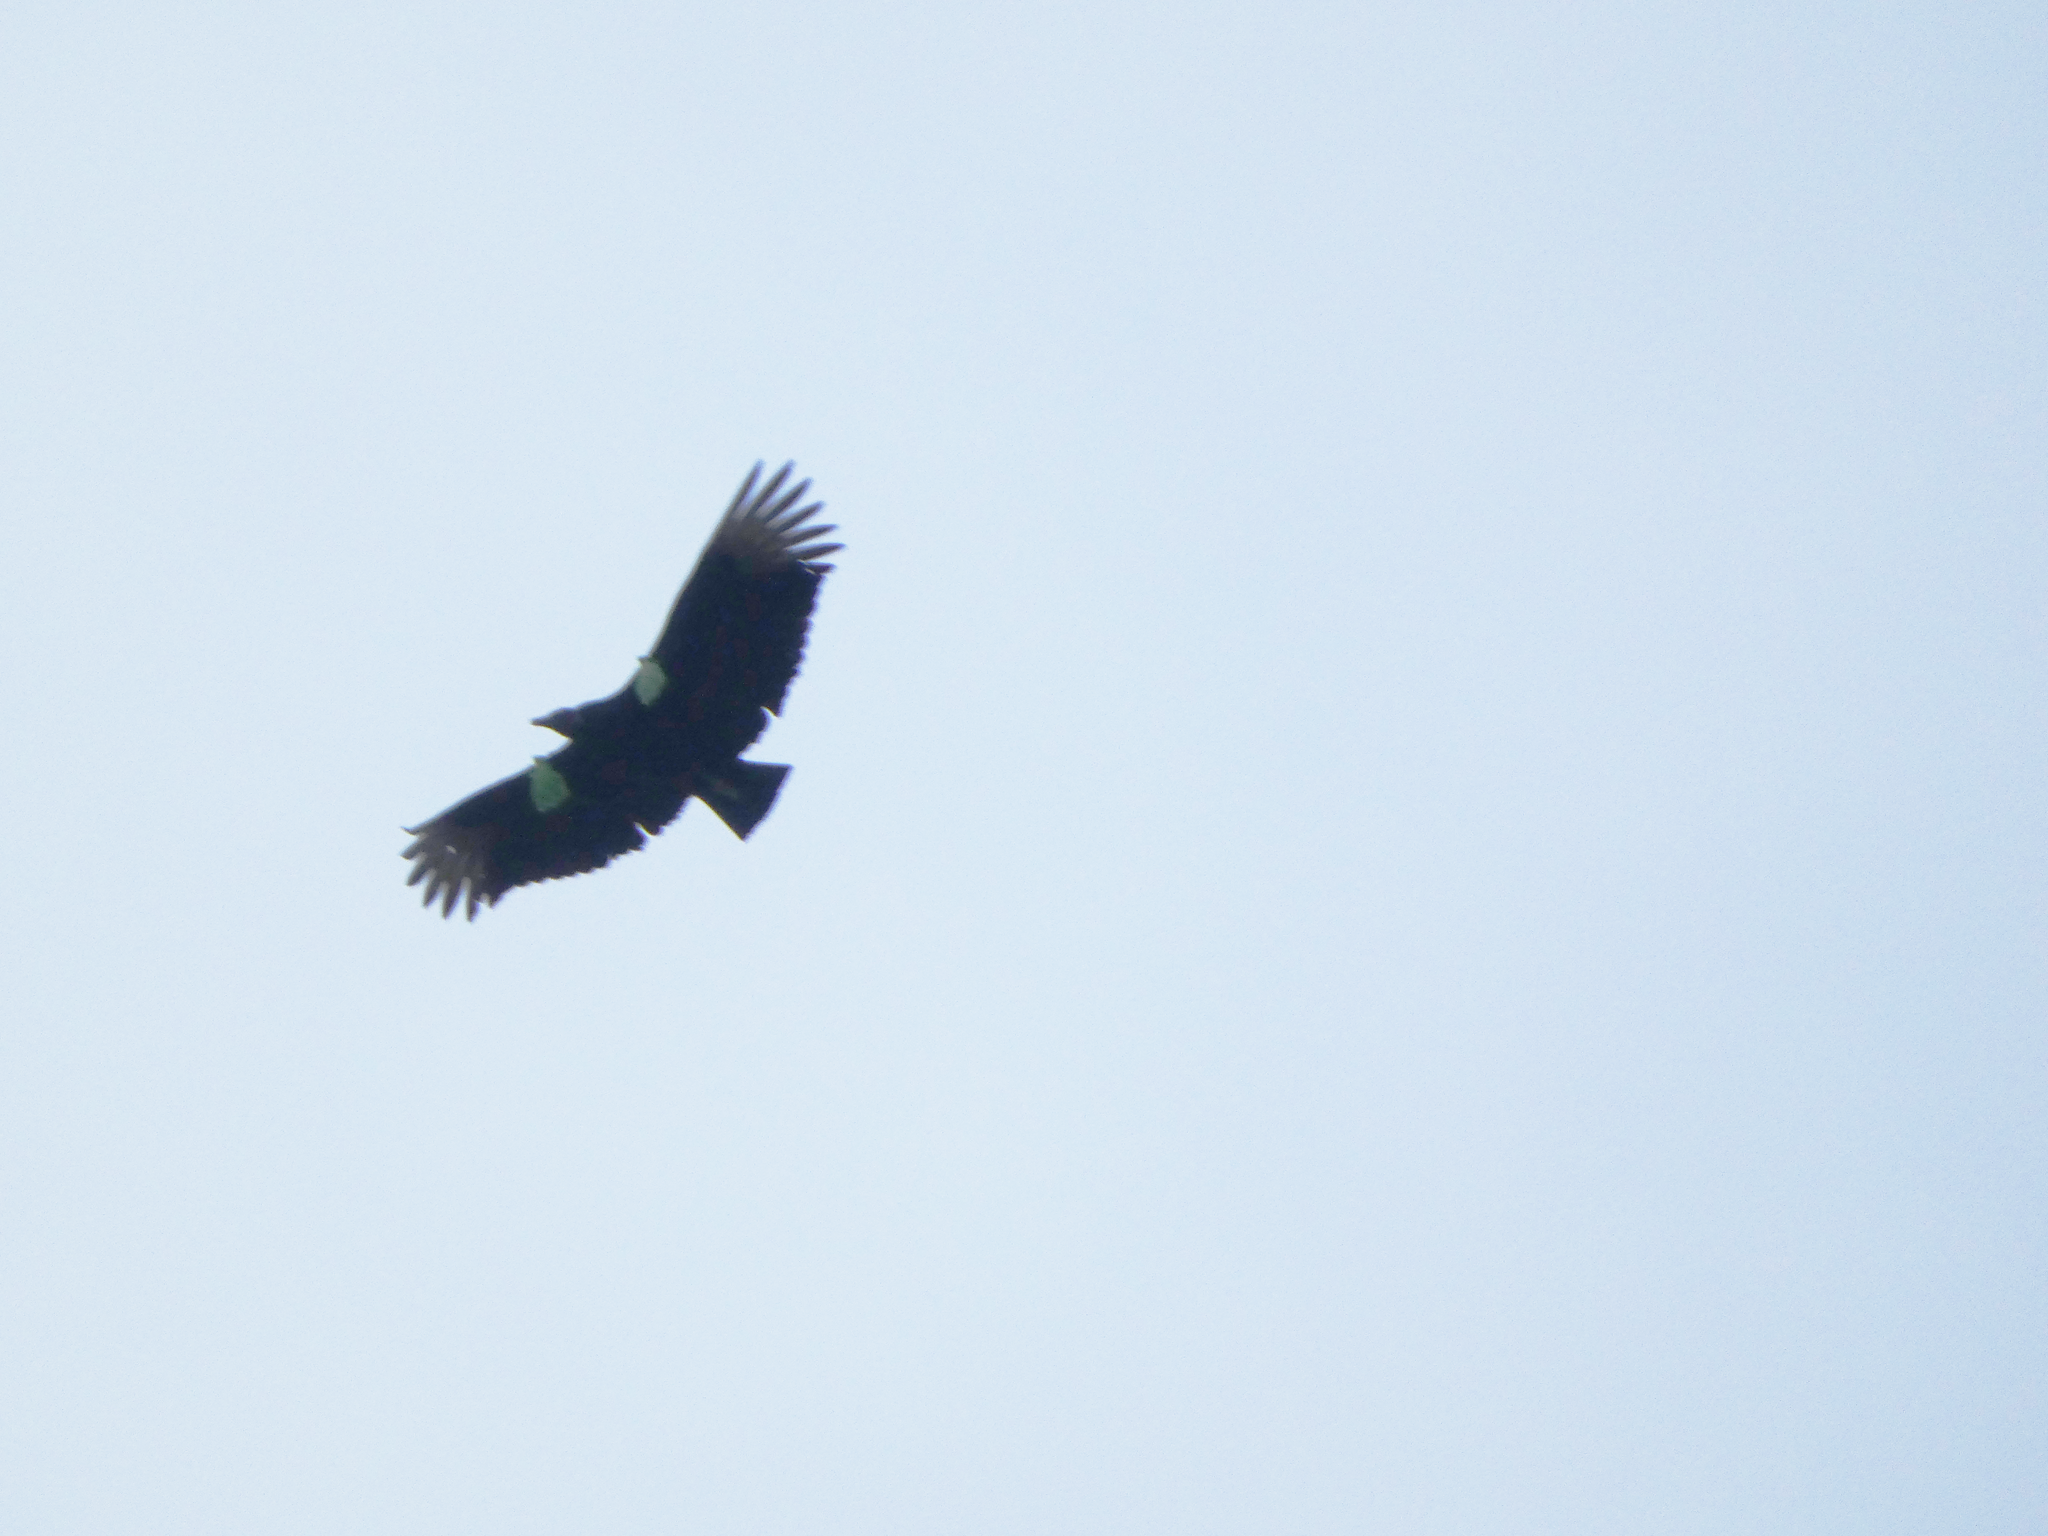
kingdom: Animalia
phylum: Chordata
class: Aves
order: Accipitriformes
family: Cathartidae
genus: Coragyps
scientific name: Coragyps atratus
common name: Black vulture
